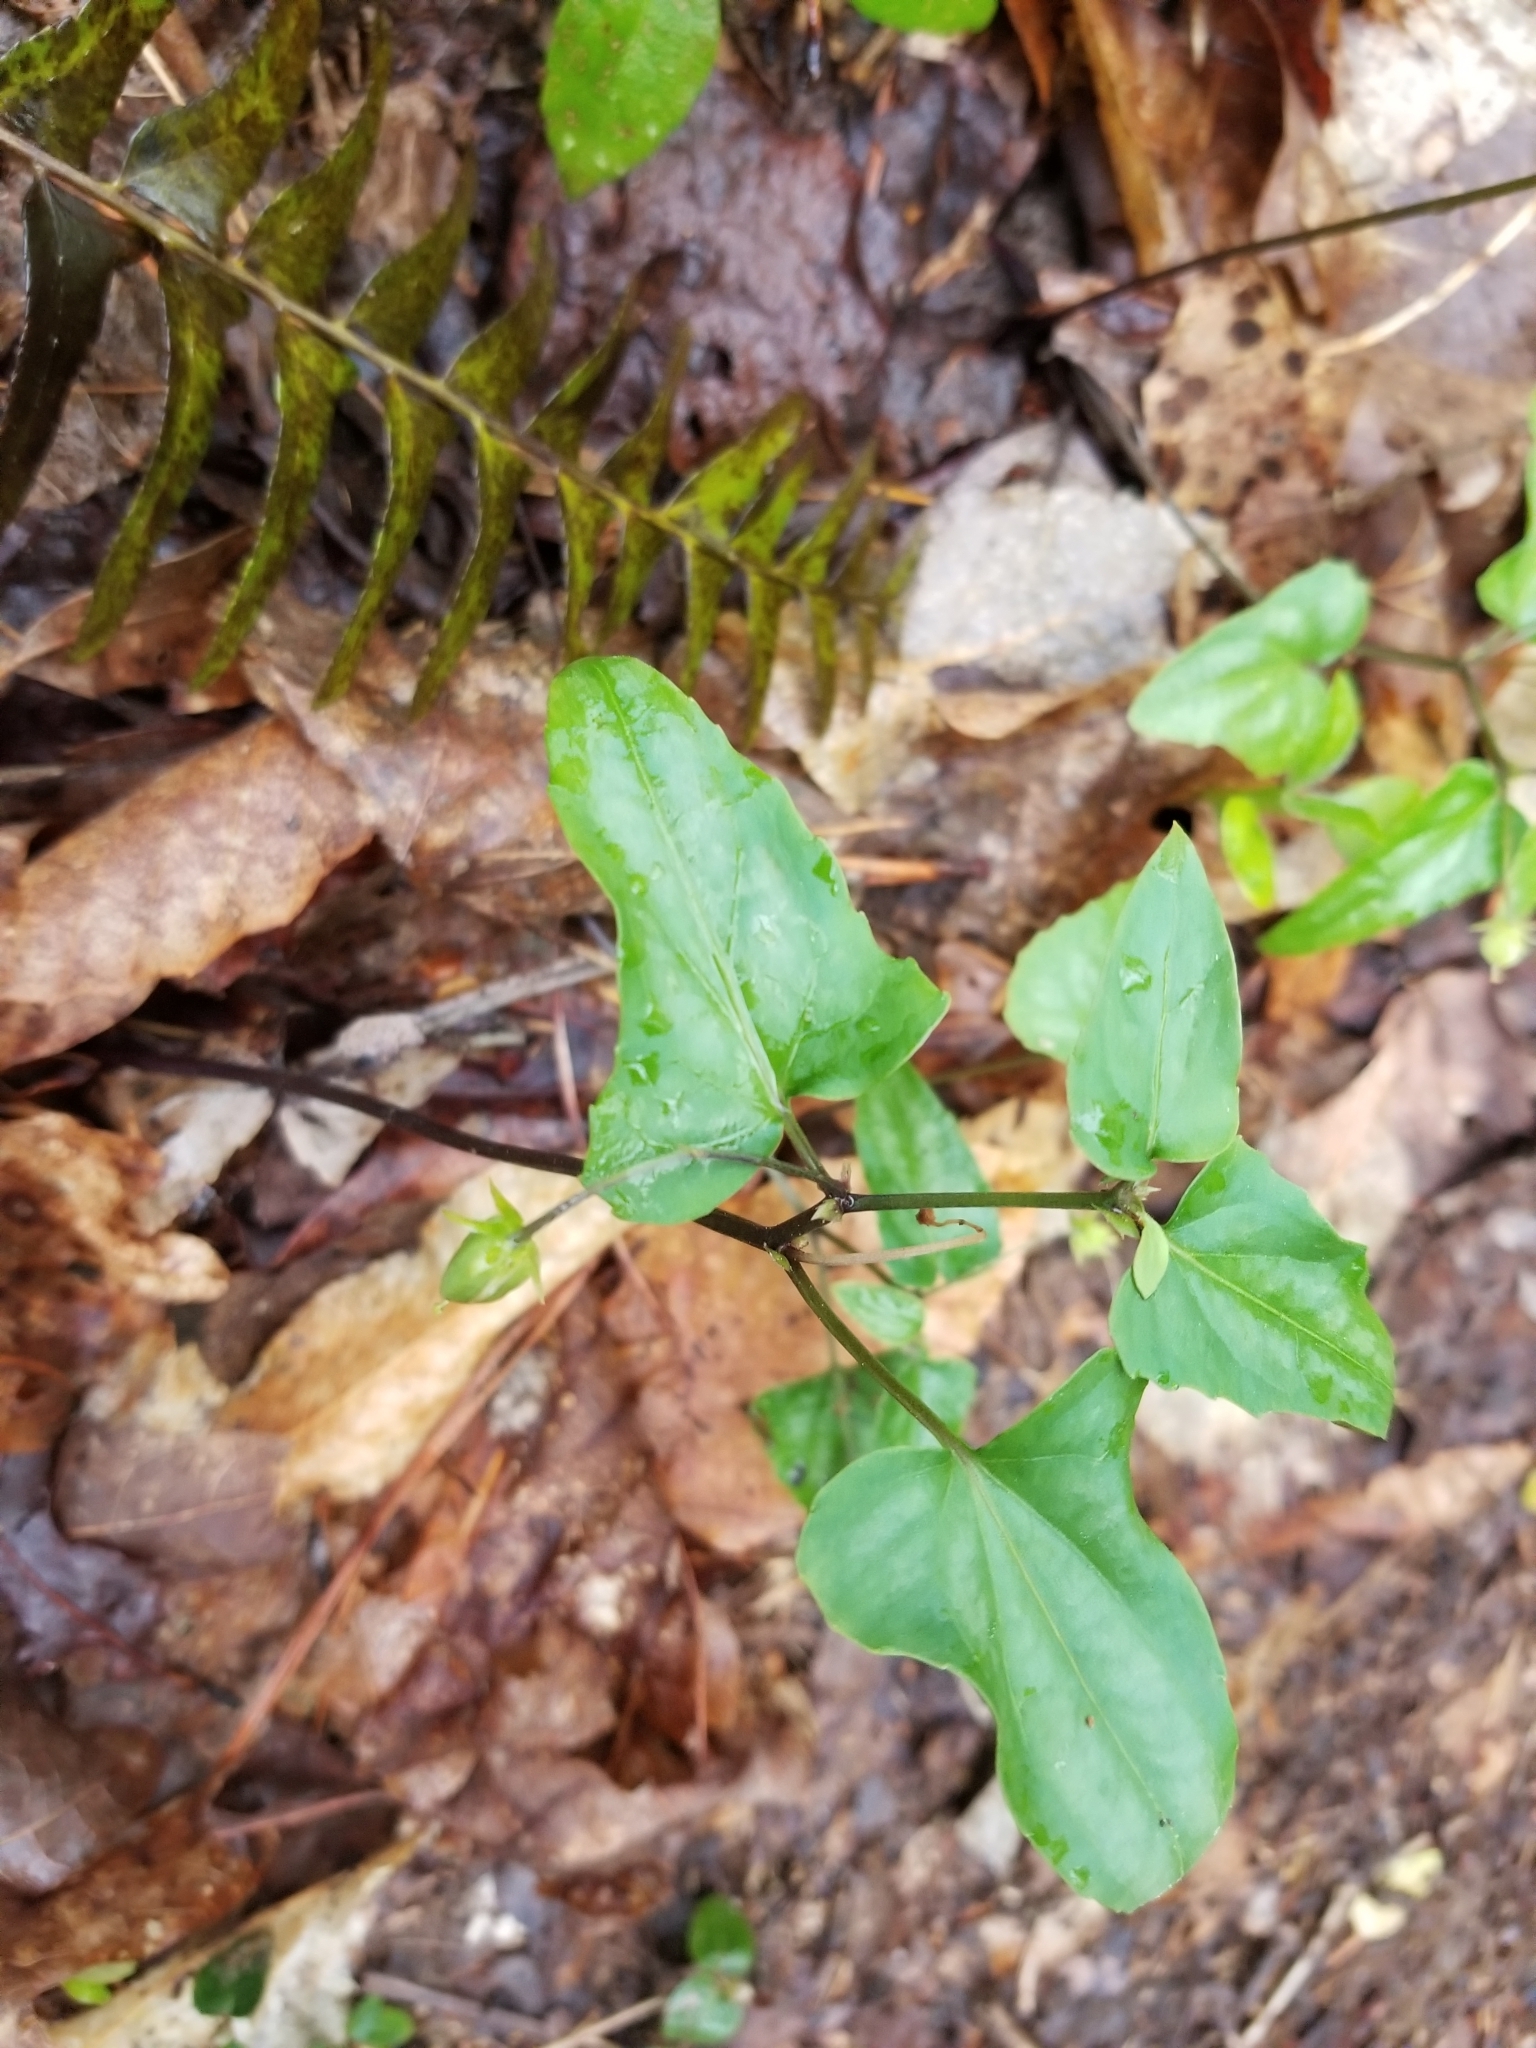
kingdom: Plantae
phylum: Tracheophyta
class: Liliopsida
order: Liliales
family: Smilacaceae
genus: Smilax
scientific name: Smilax bona-nox
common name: Catbrier
